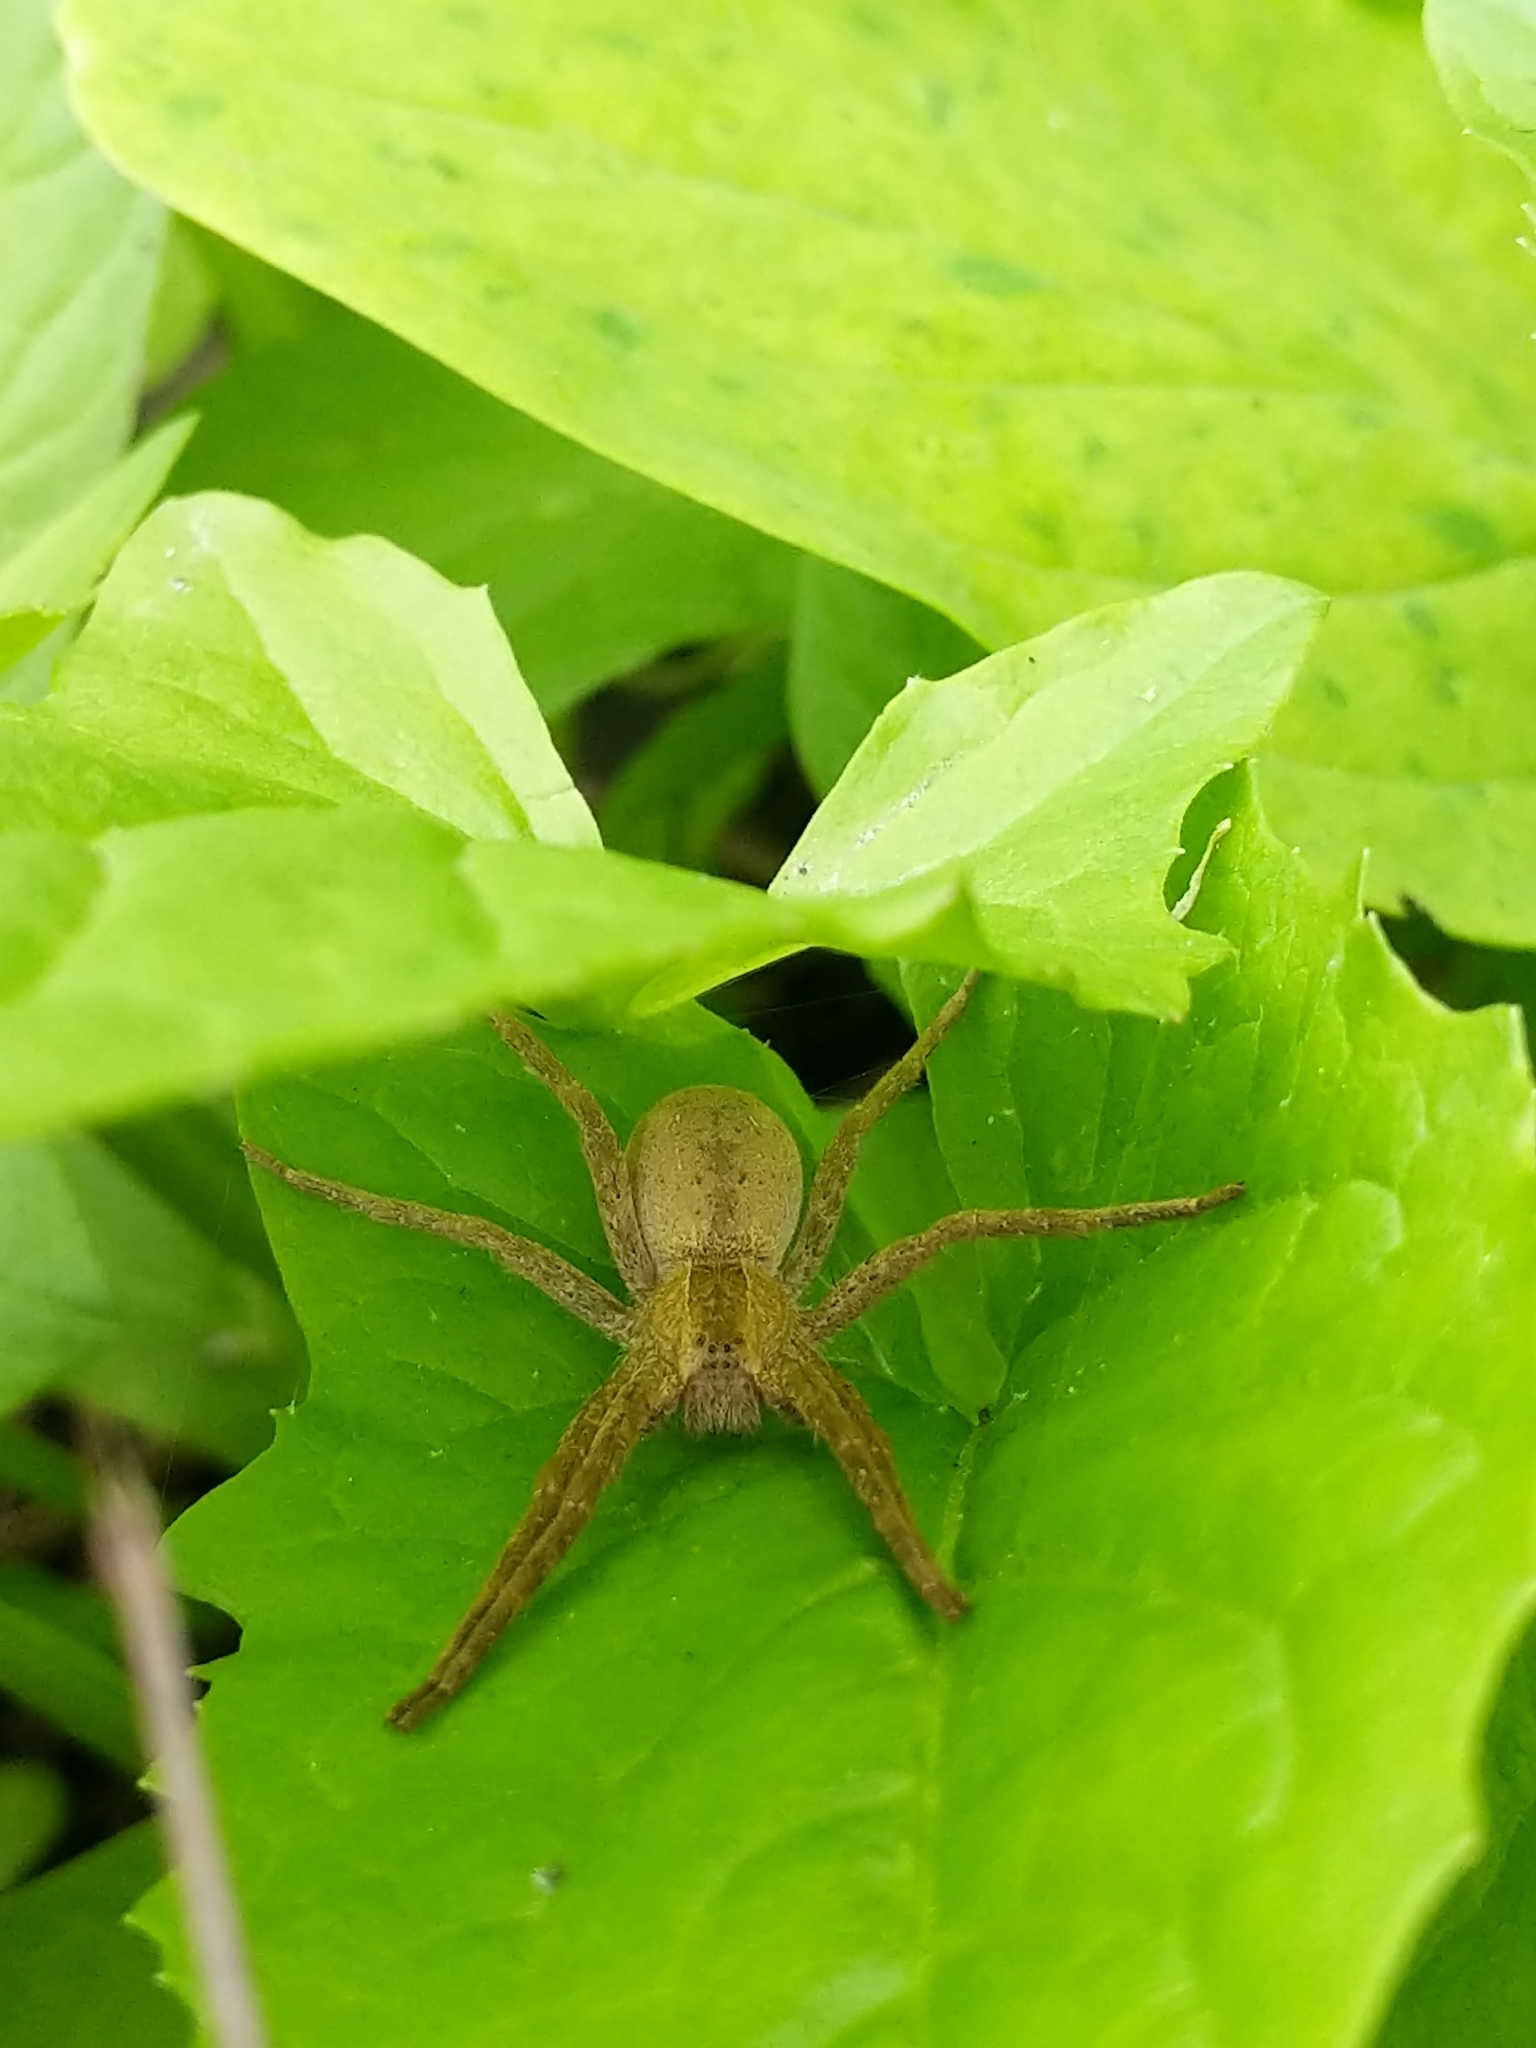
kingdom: Animalia
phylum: Arthropoda
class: Arachnida
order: Araneae
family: Pisauridae
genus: Pisaurina
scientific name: Pisaurina mira
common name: American nursery web spider
